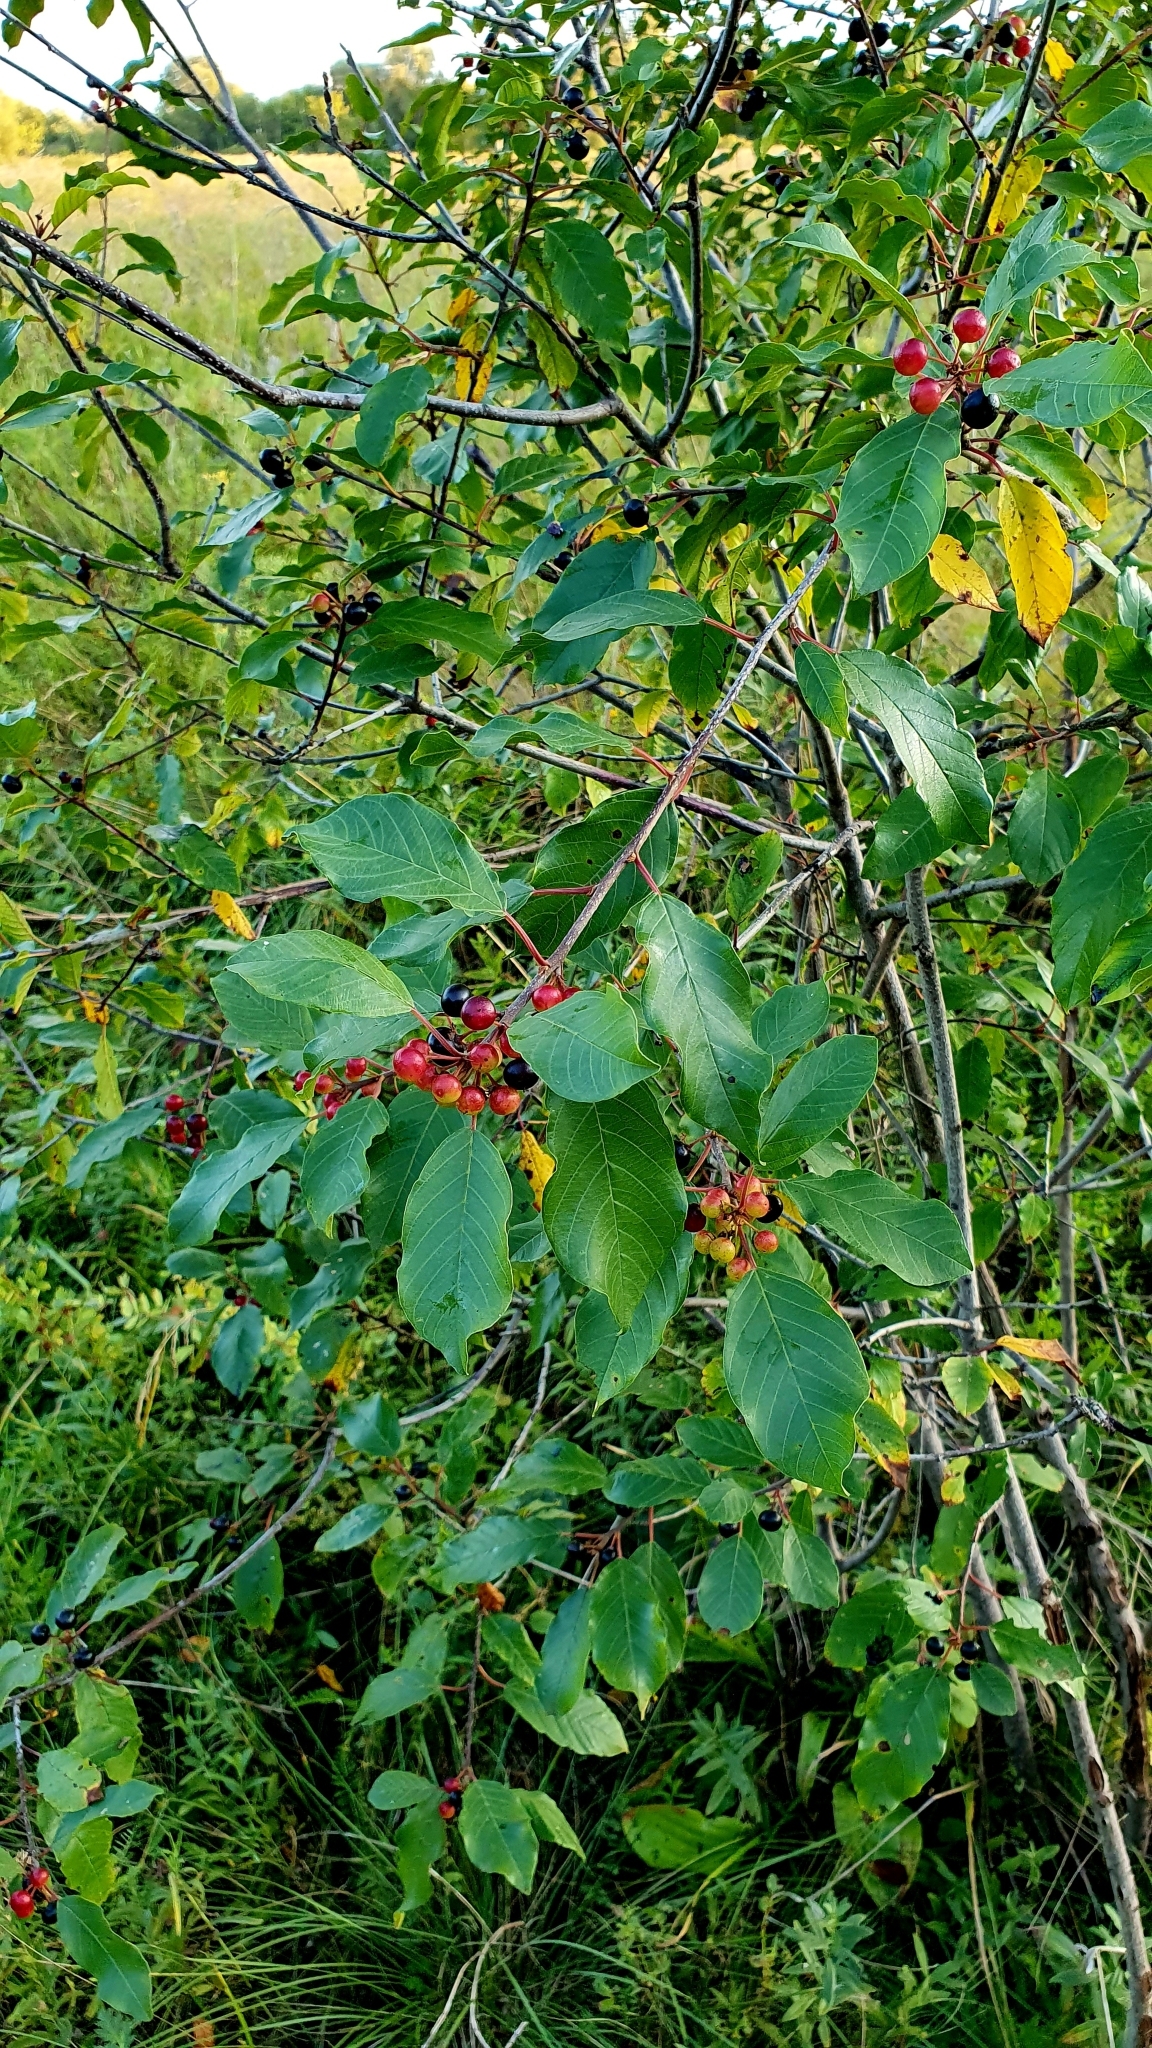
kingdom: Plantae
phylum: Tracheophyta
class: Magnoliopsida
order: Rosales
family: Rhamnaceae
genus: Frangula
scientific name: Frangula alnus
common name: Alder buckthorn
